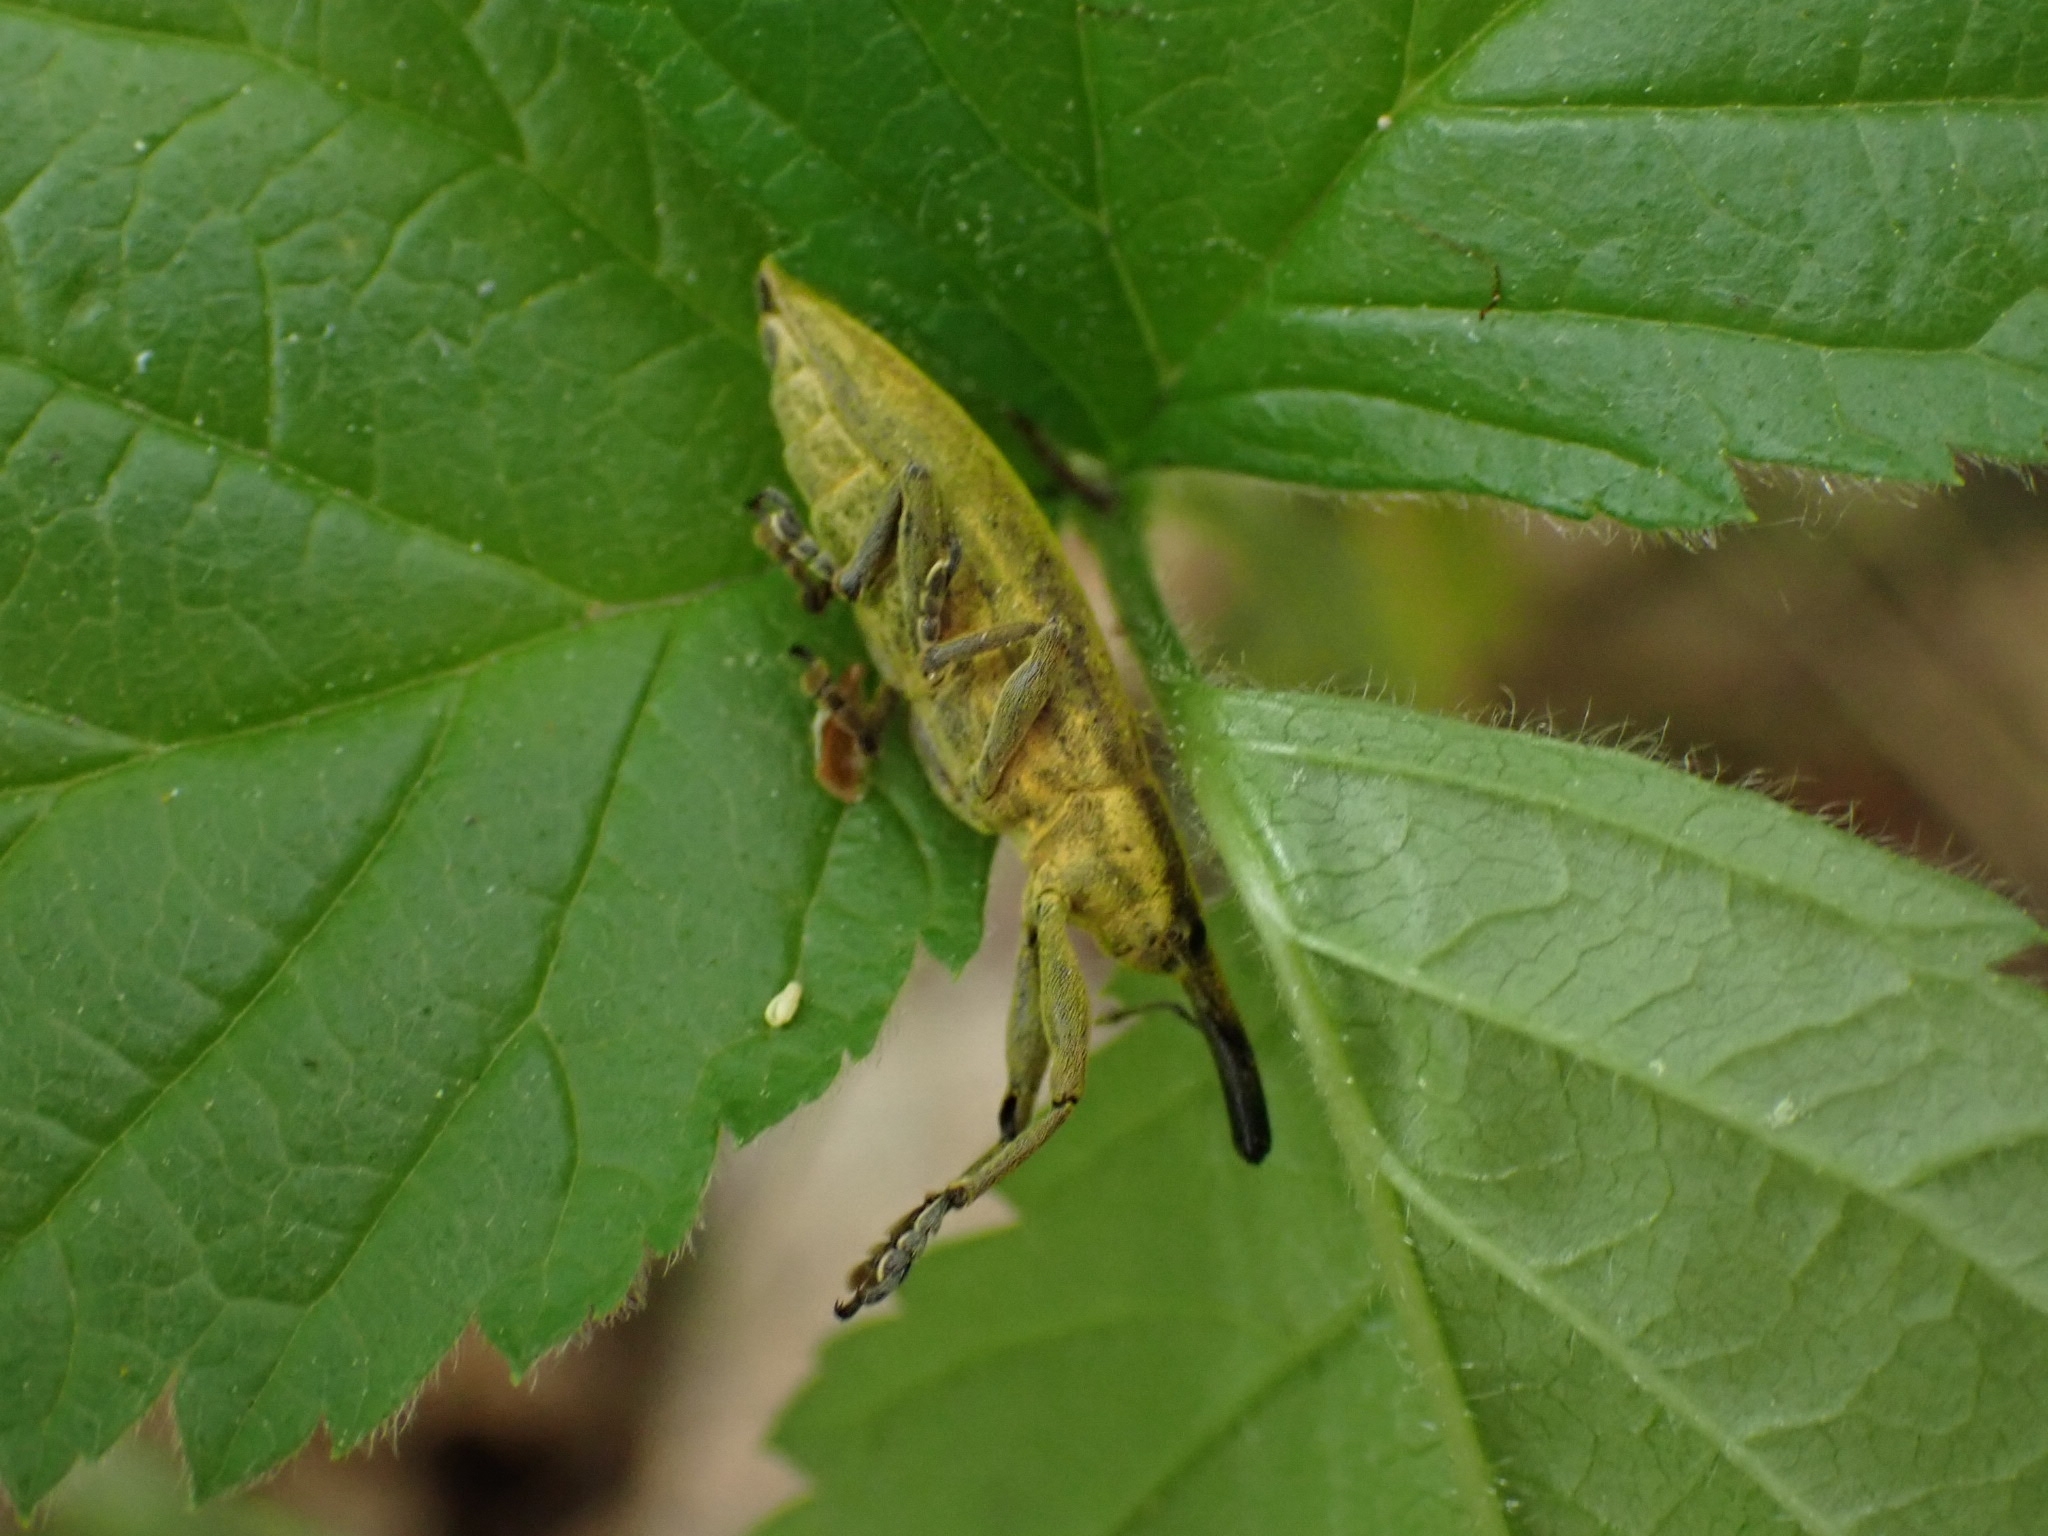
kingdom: Animalia
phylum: Arthropoda
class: Insecta
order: Coleoptera
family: Curculionidae
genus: Lixus
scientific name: Lixus iridis
